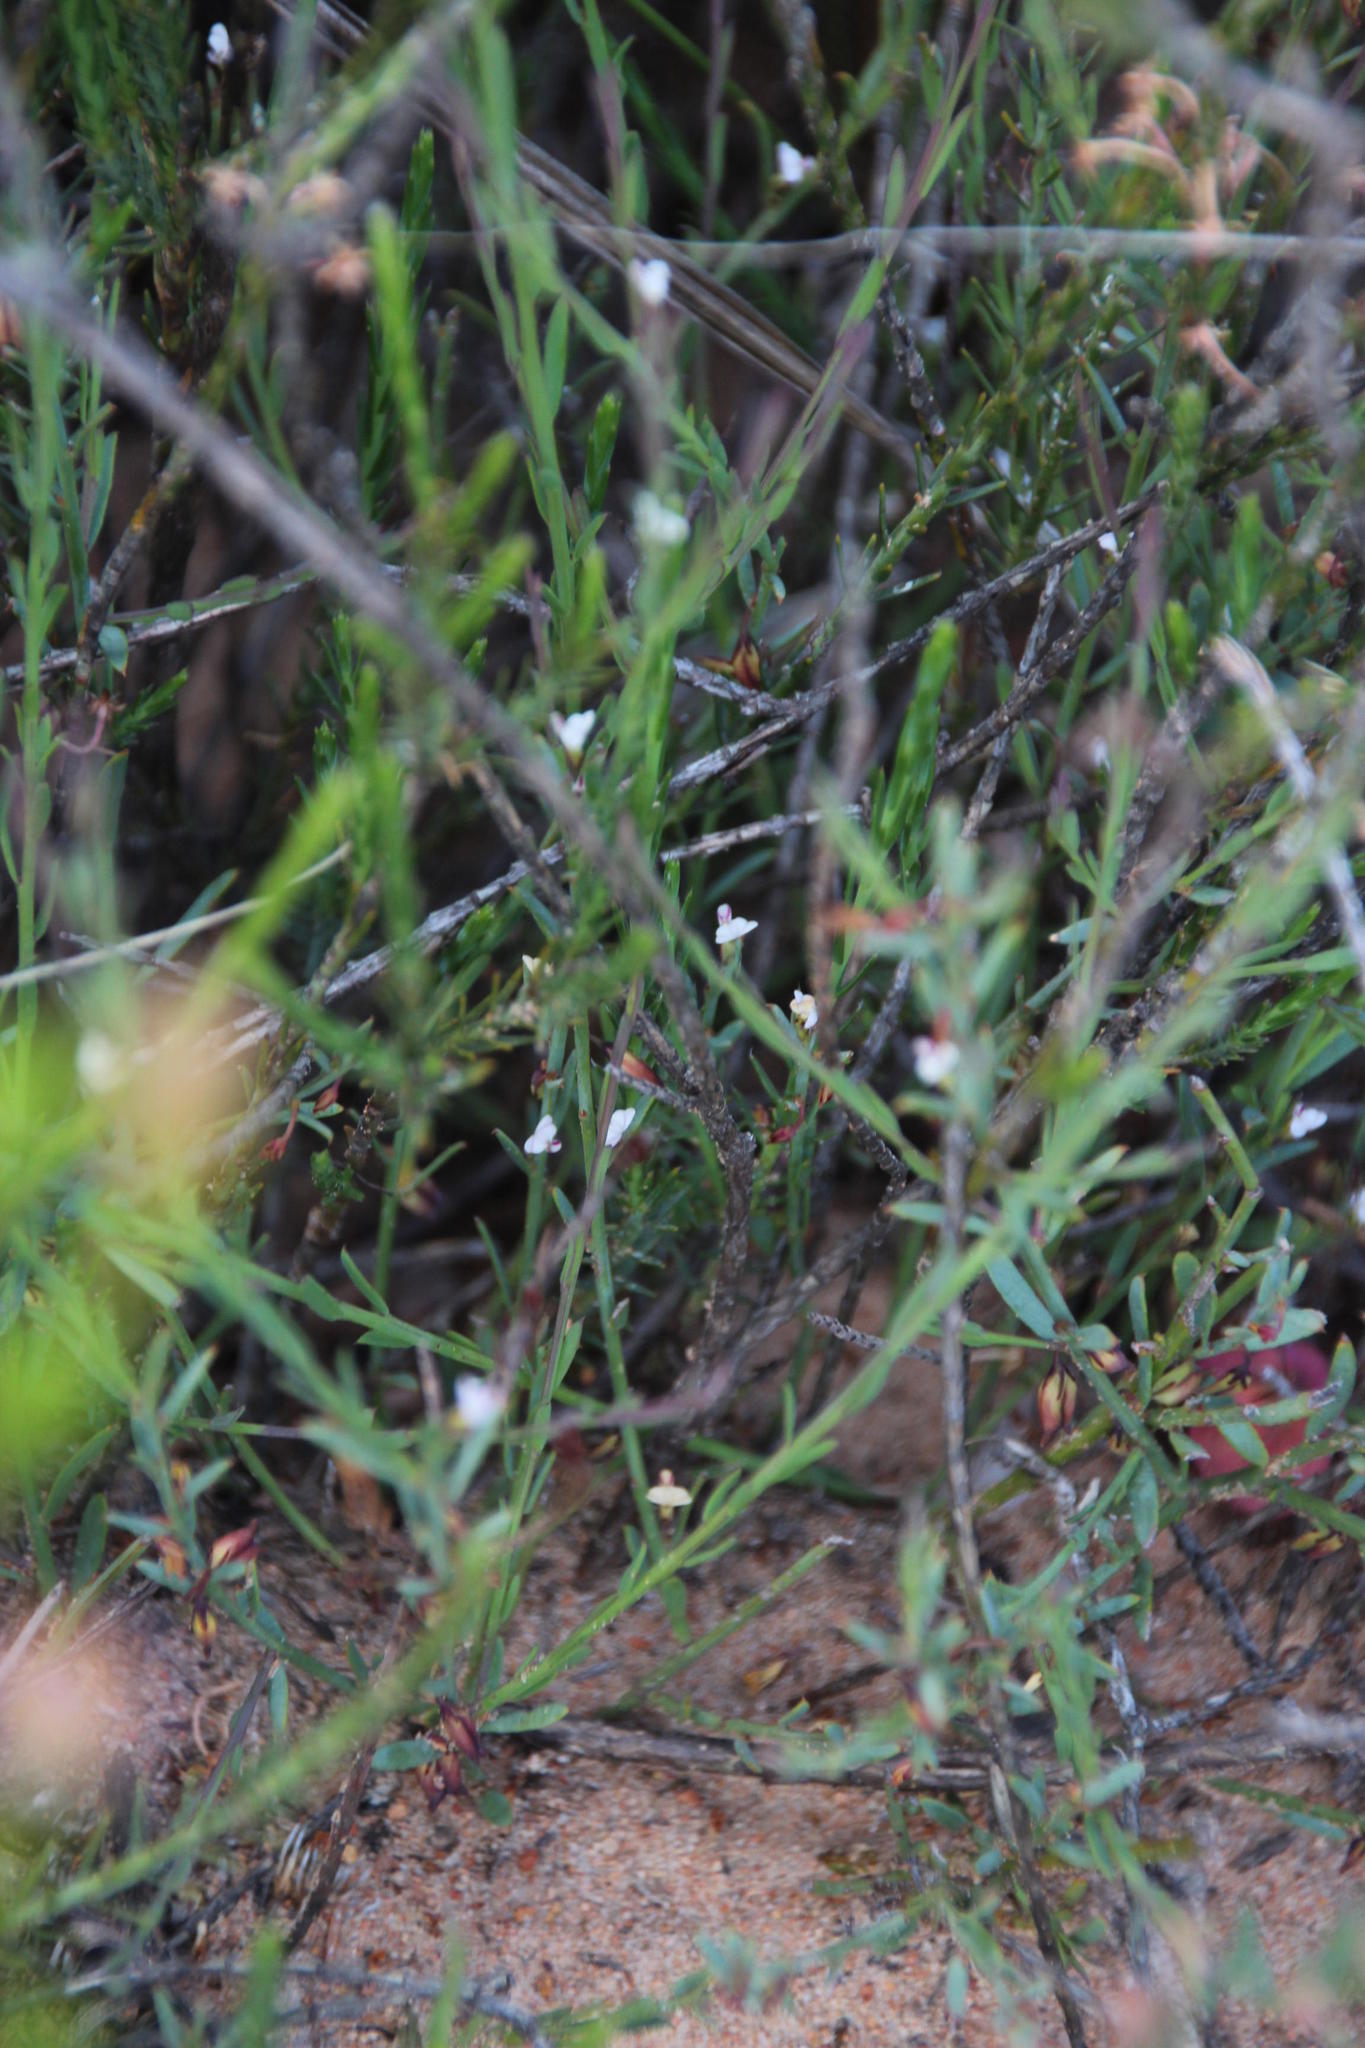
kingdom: Plantae
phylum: Tracheophyta
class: Magnoliopsida
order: Fabales
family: Polygalaceae
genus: Muraltia
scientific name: Muraltia muraltioides
